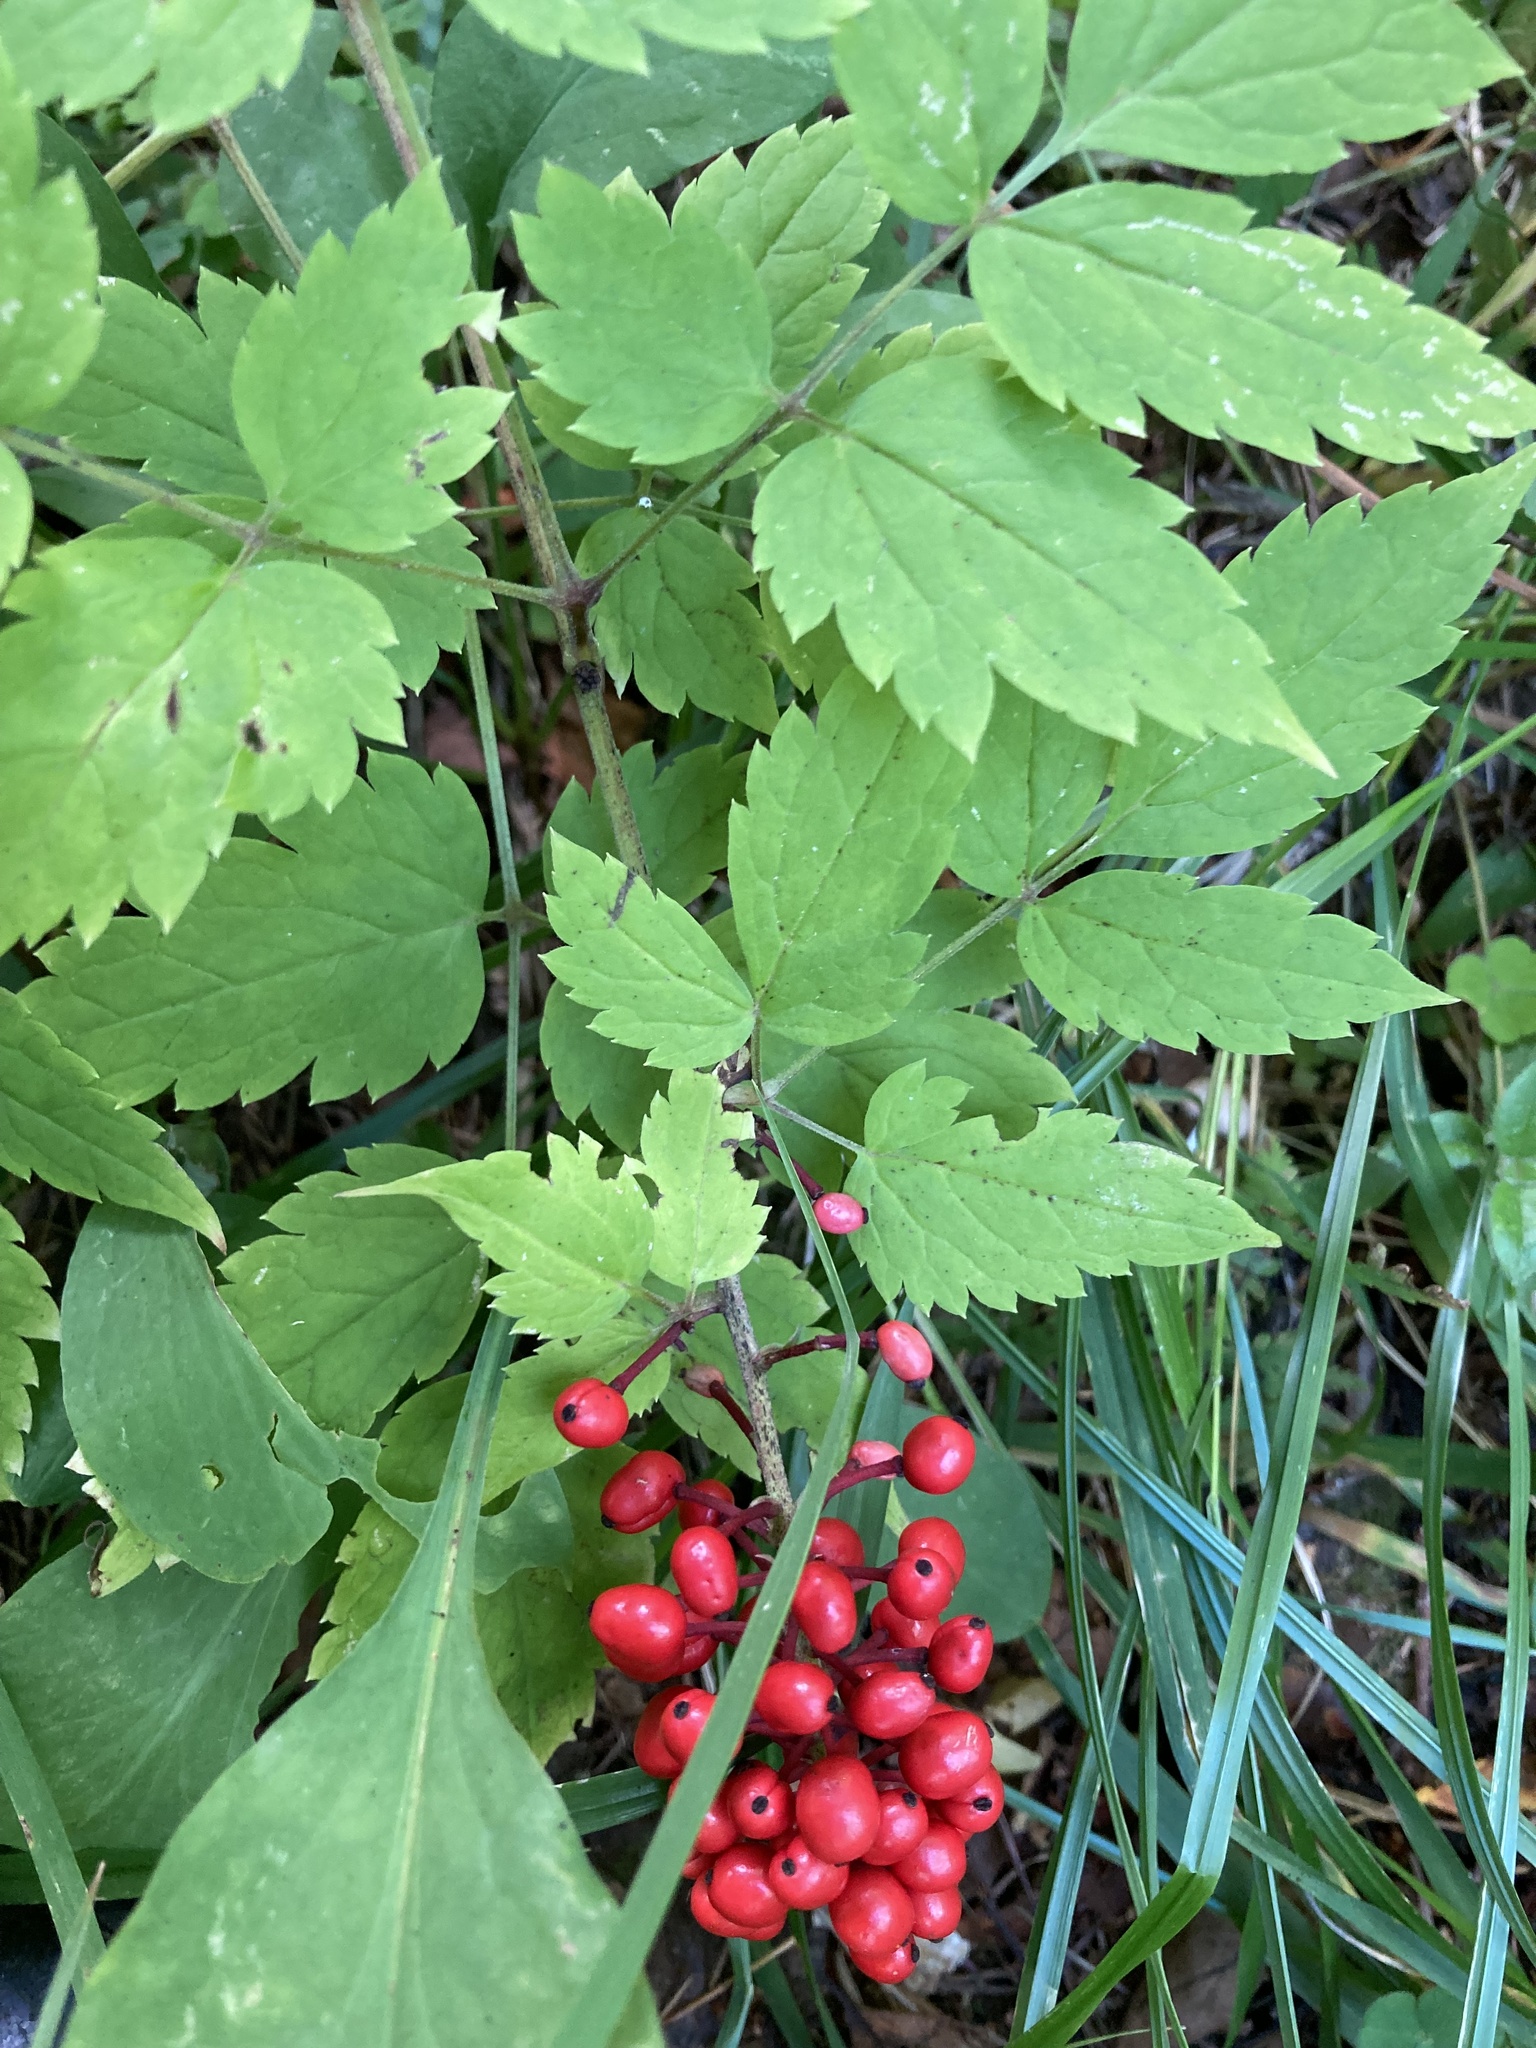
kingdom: Plantae
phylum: Tracheophyta
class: Magnoliopsida
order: Ranunculales
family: Ranunculaceae
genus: Actaea
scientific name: Actaea erythrocarpa
